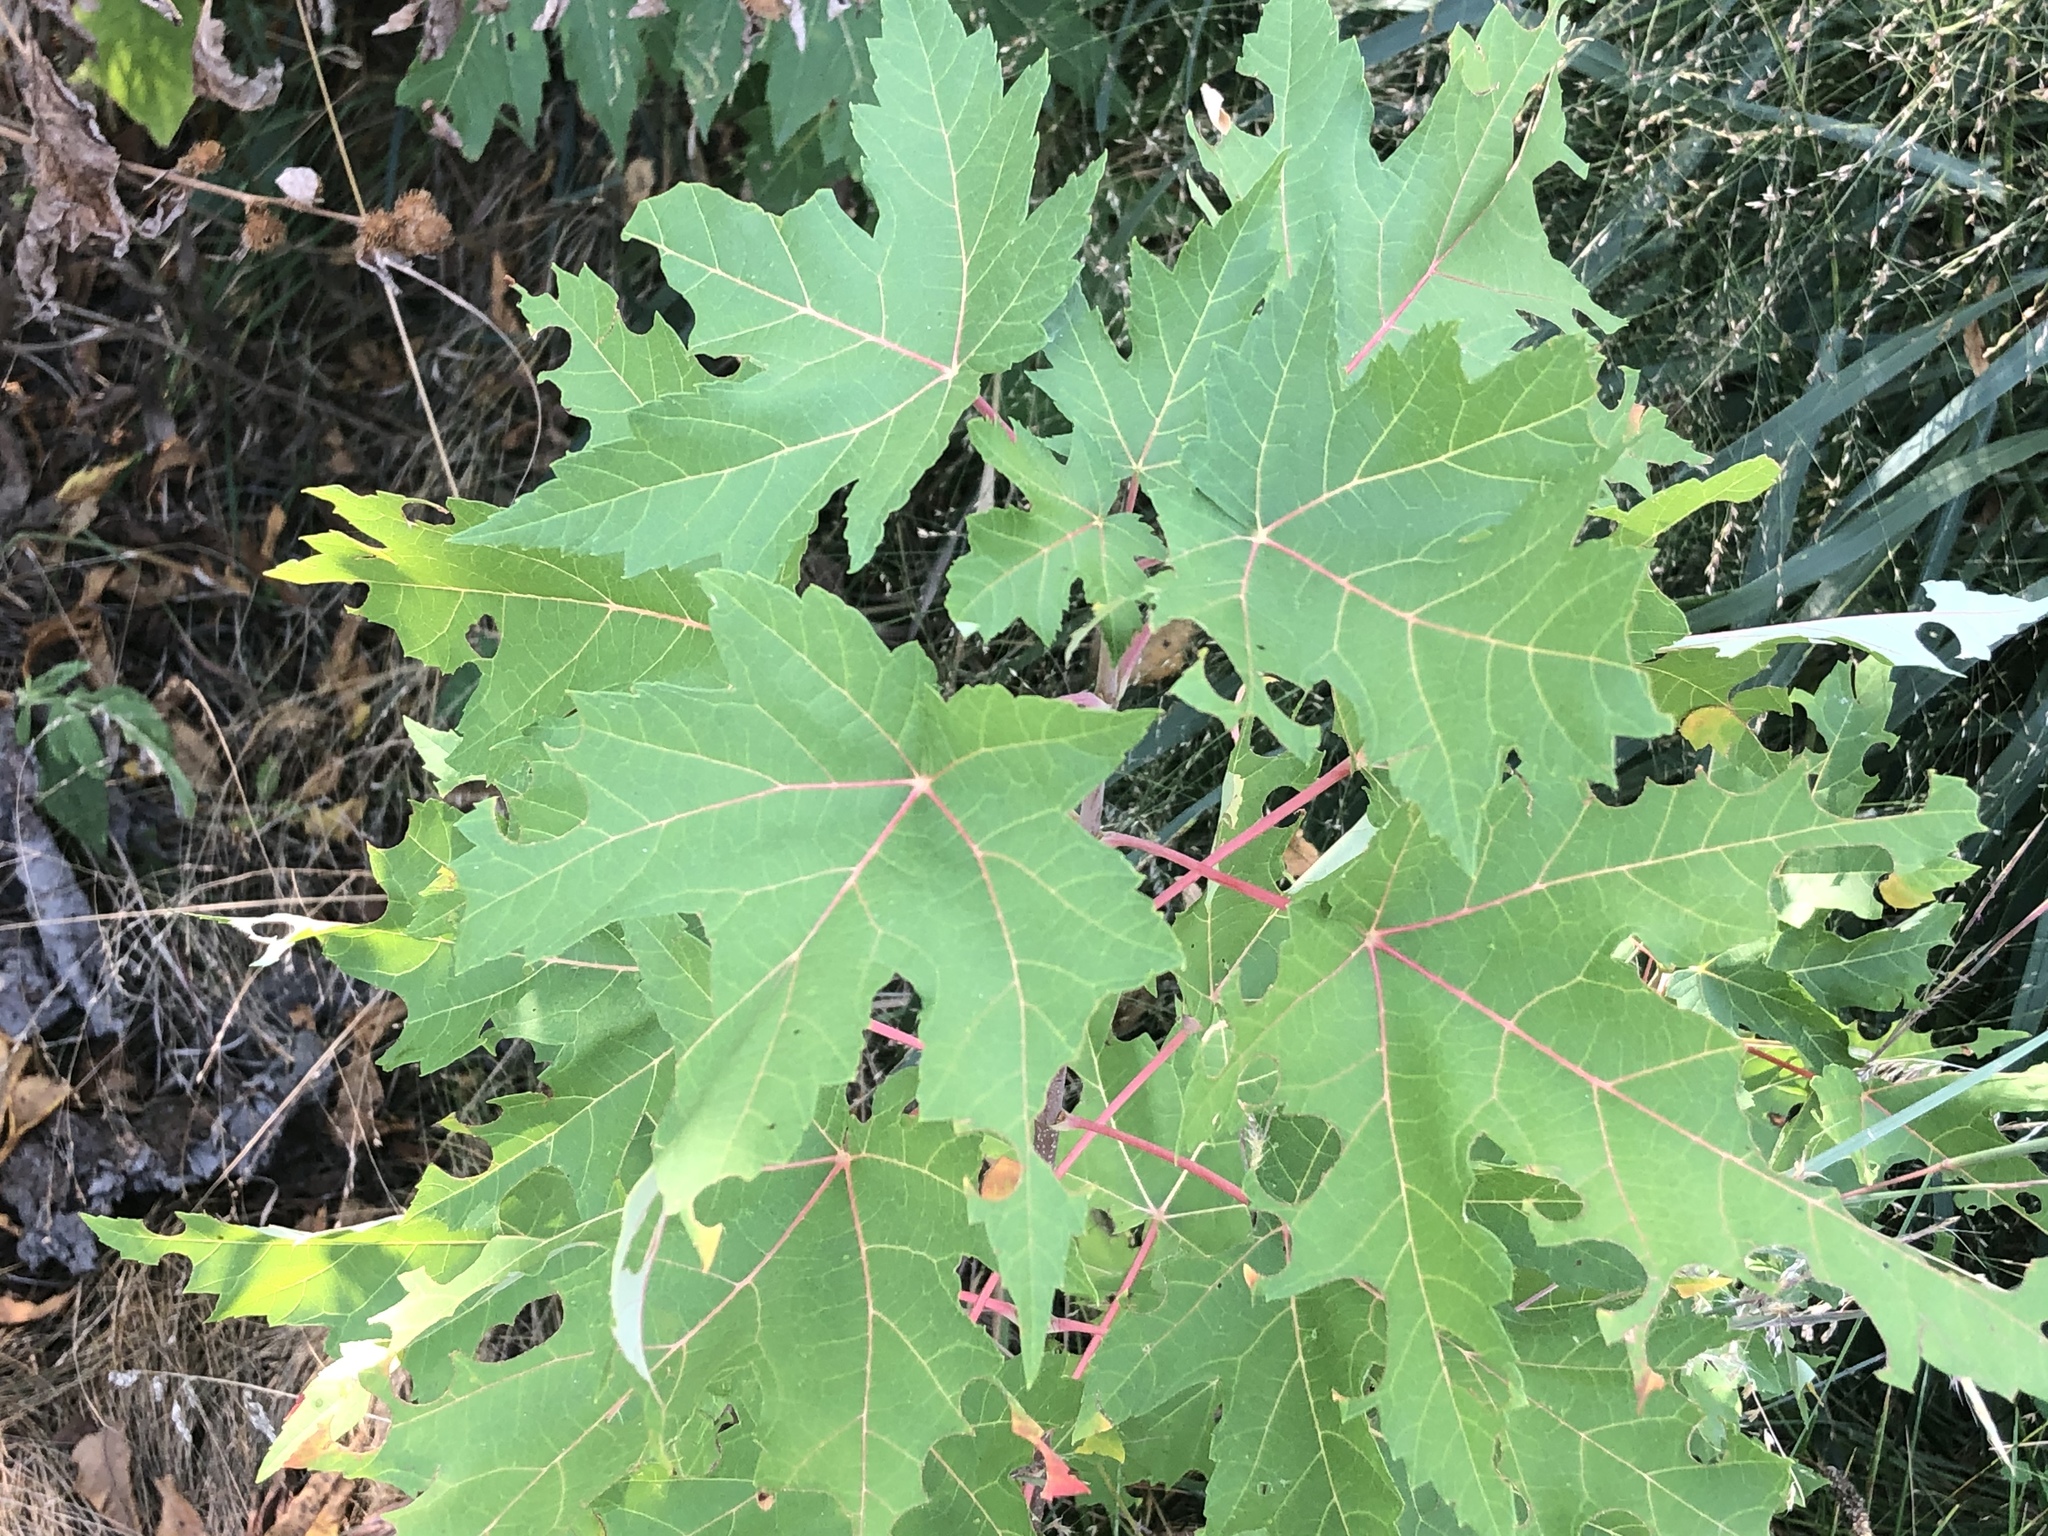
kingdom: Plantae
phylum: Tracheophyta
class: Magnoliopsida
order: Sapindales
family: Sapindaceae
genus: Acer
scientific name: Acer saccharinum
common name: Silver maple
